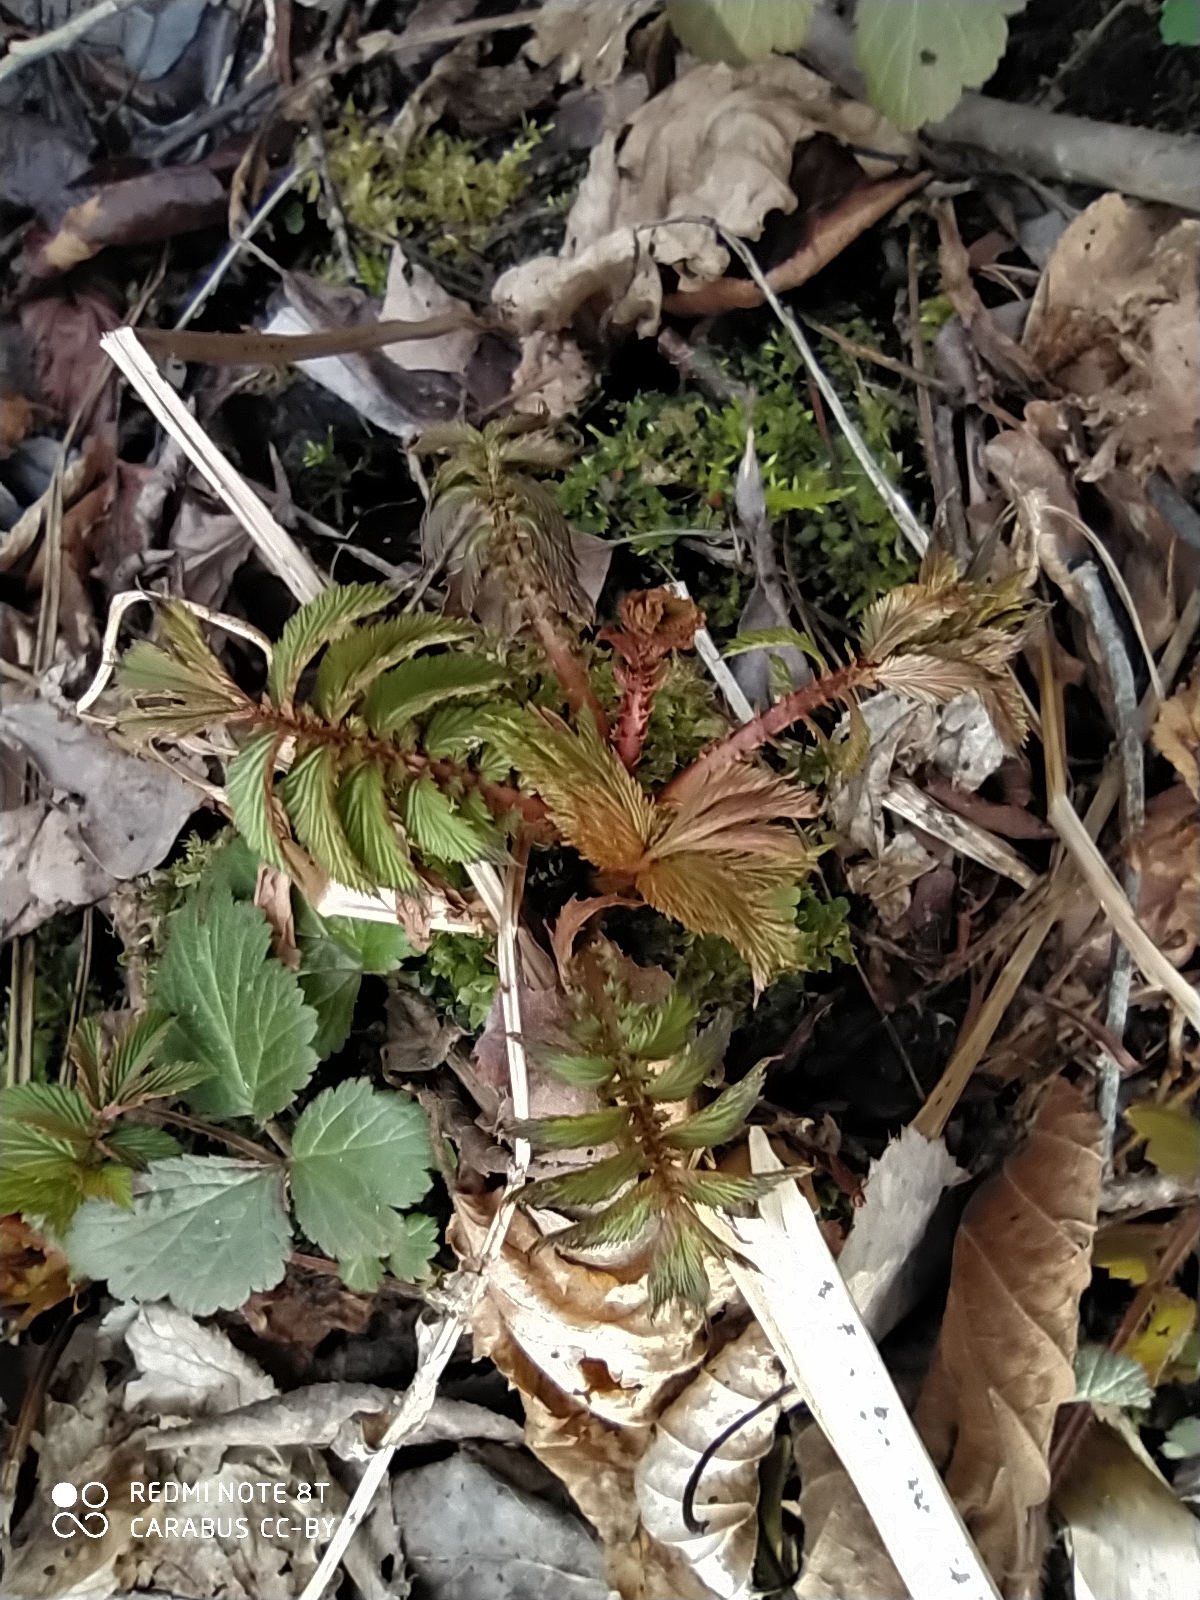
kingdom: Plantae
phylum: Tracheophyta
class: Magnoliopsida
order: Rosales
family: Rosaceae
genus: Filipendula
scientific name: Filipendula ulmaria
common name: Meadowsweet
